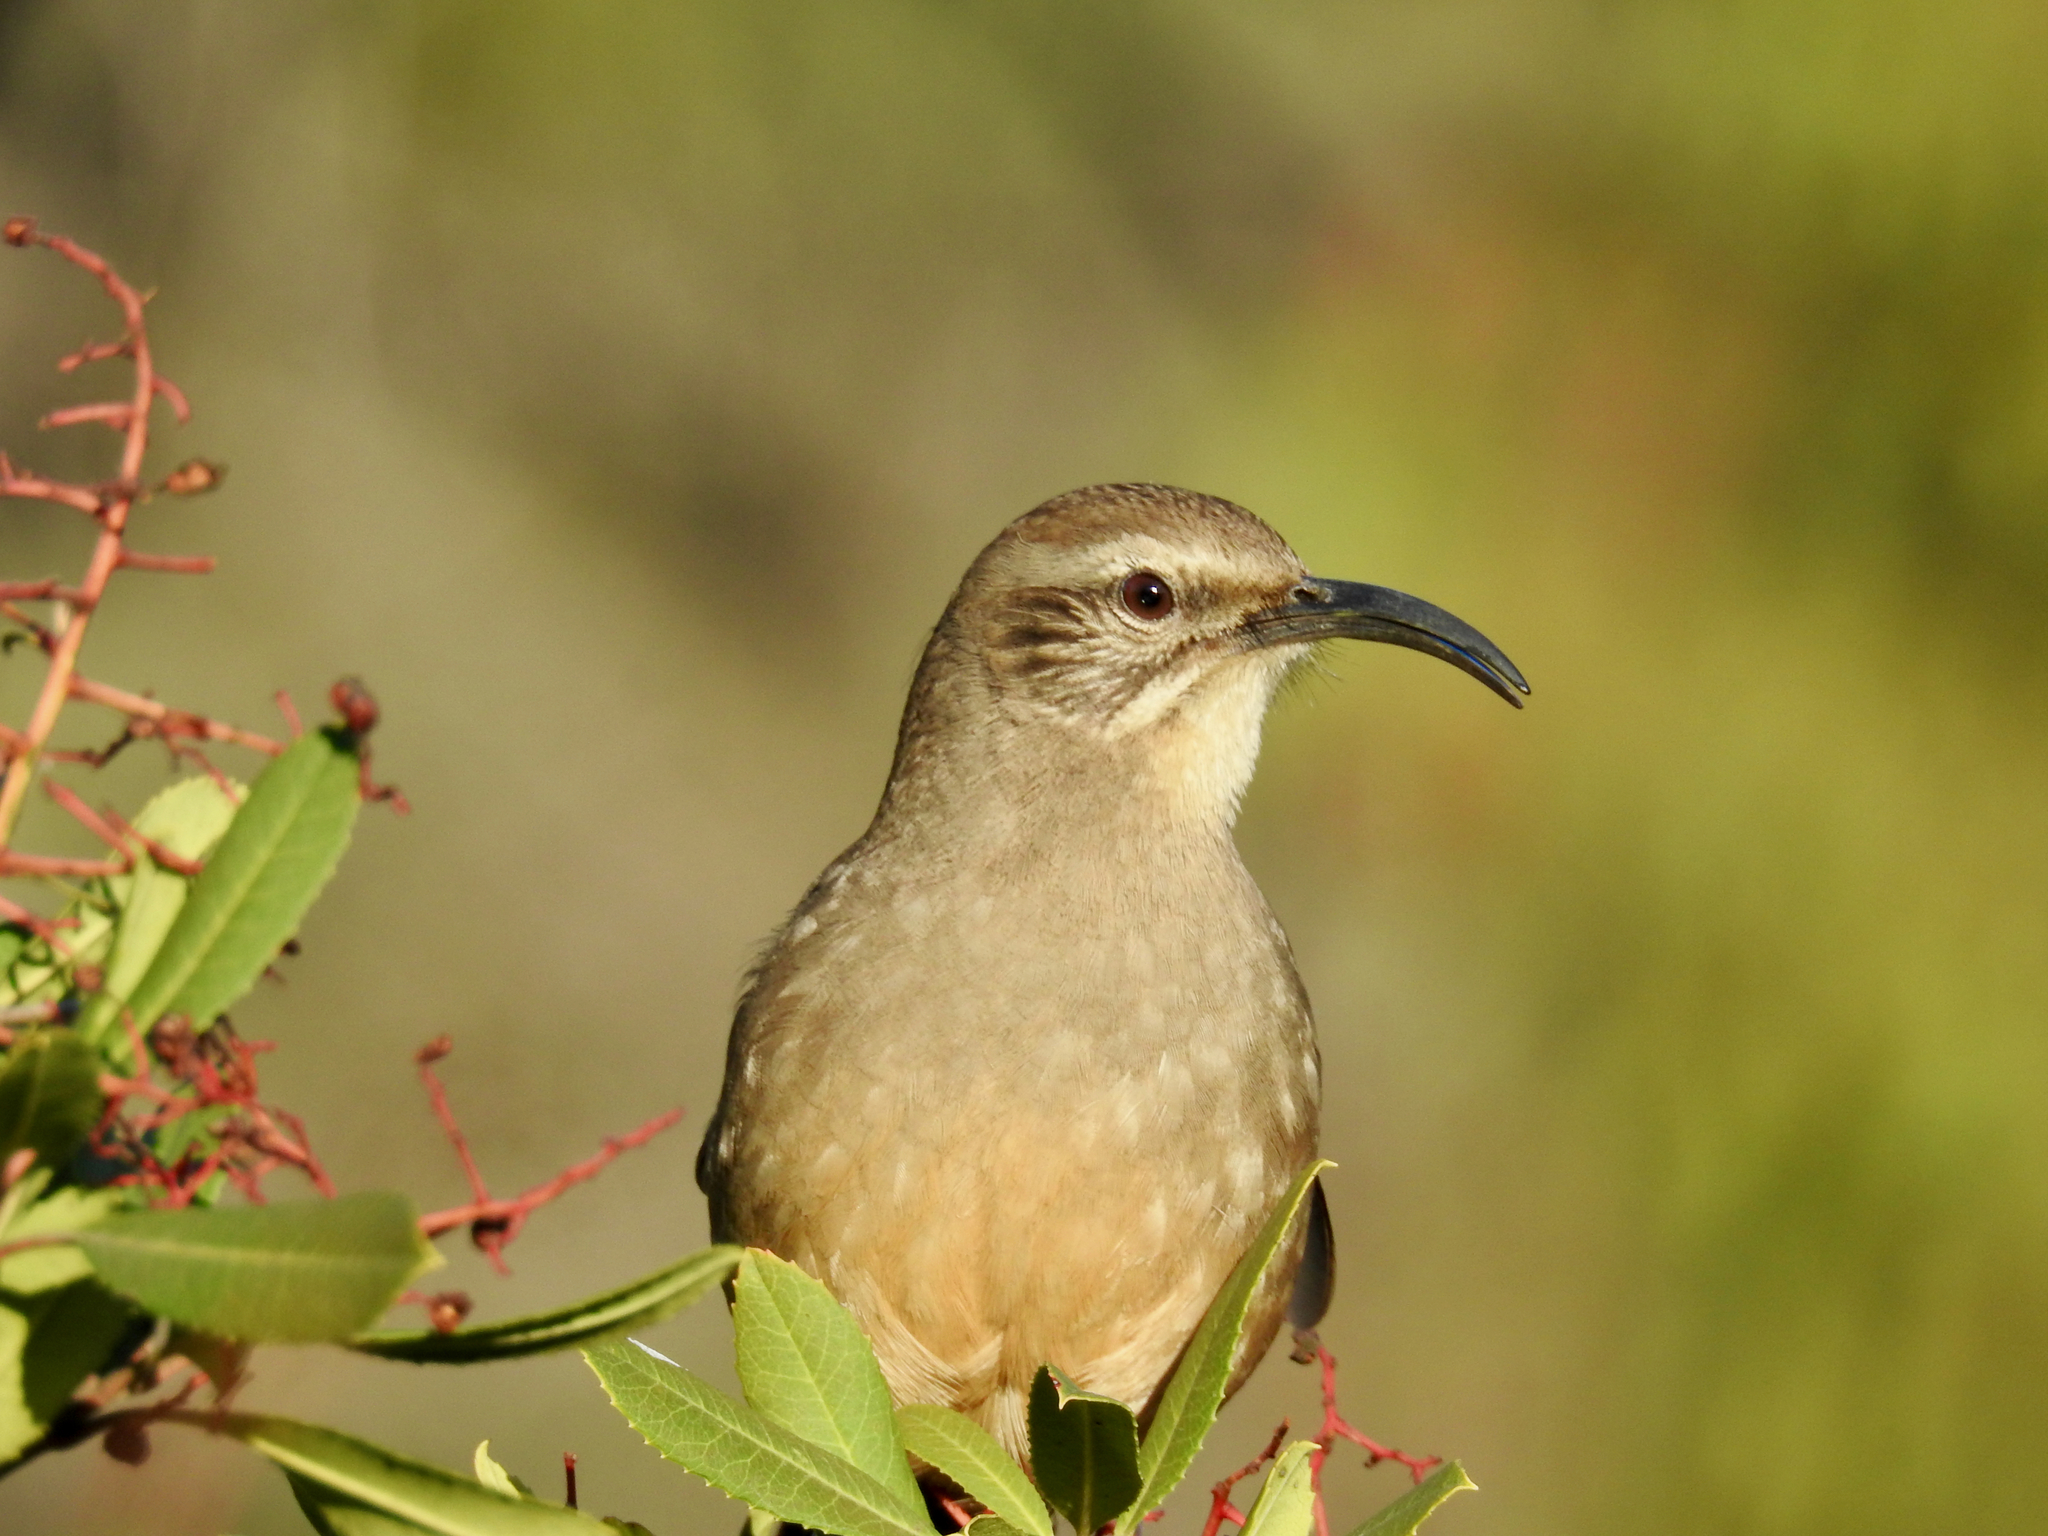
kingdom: Animalia
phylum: Chordata
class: Aves
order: Passeriformes
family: Mimidae
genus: Toxostoma
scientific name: Toxostoma redivivum
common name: California thrasher
